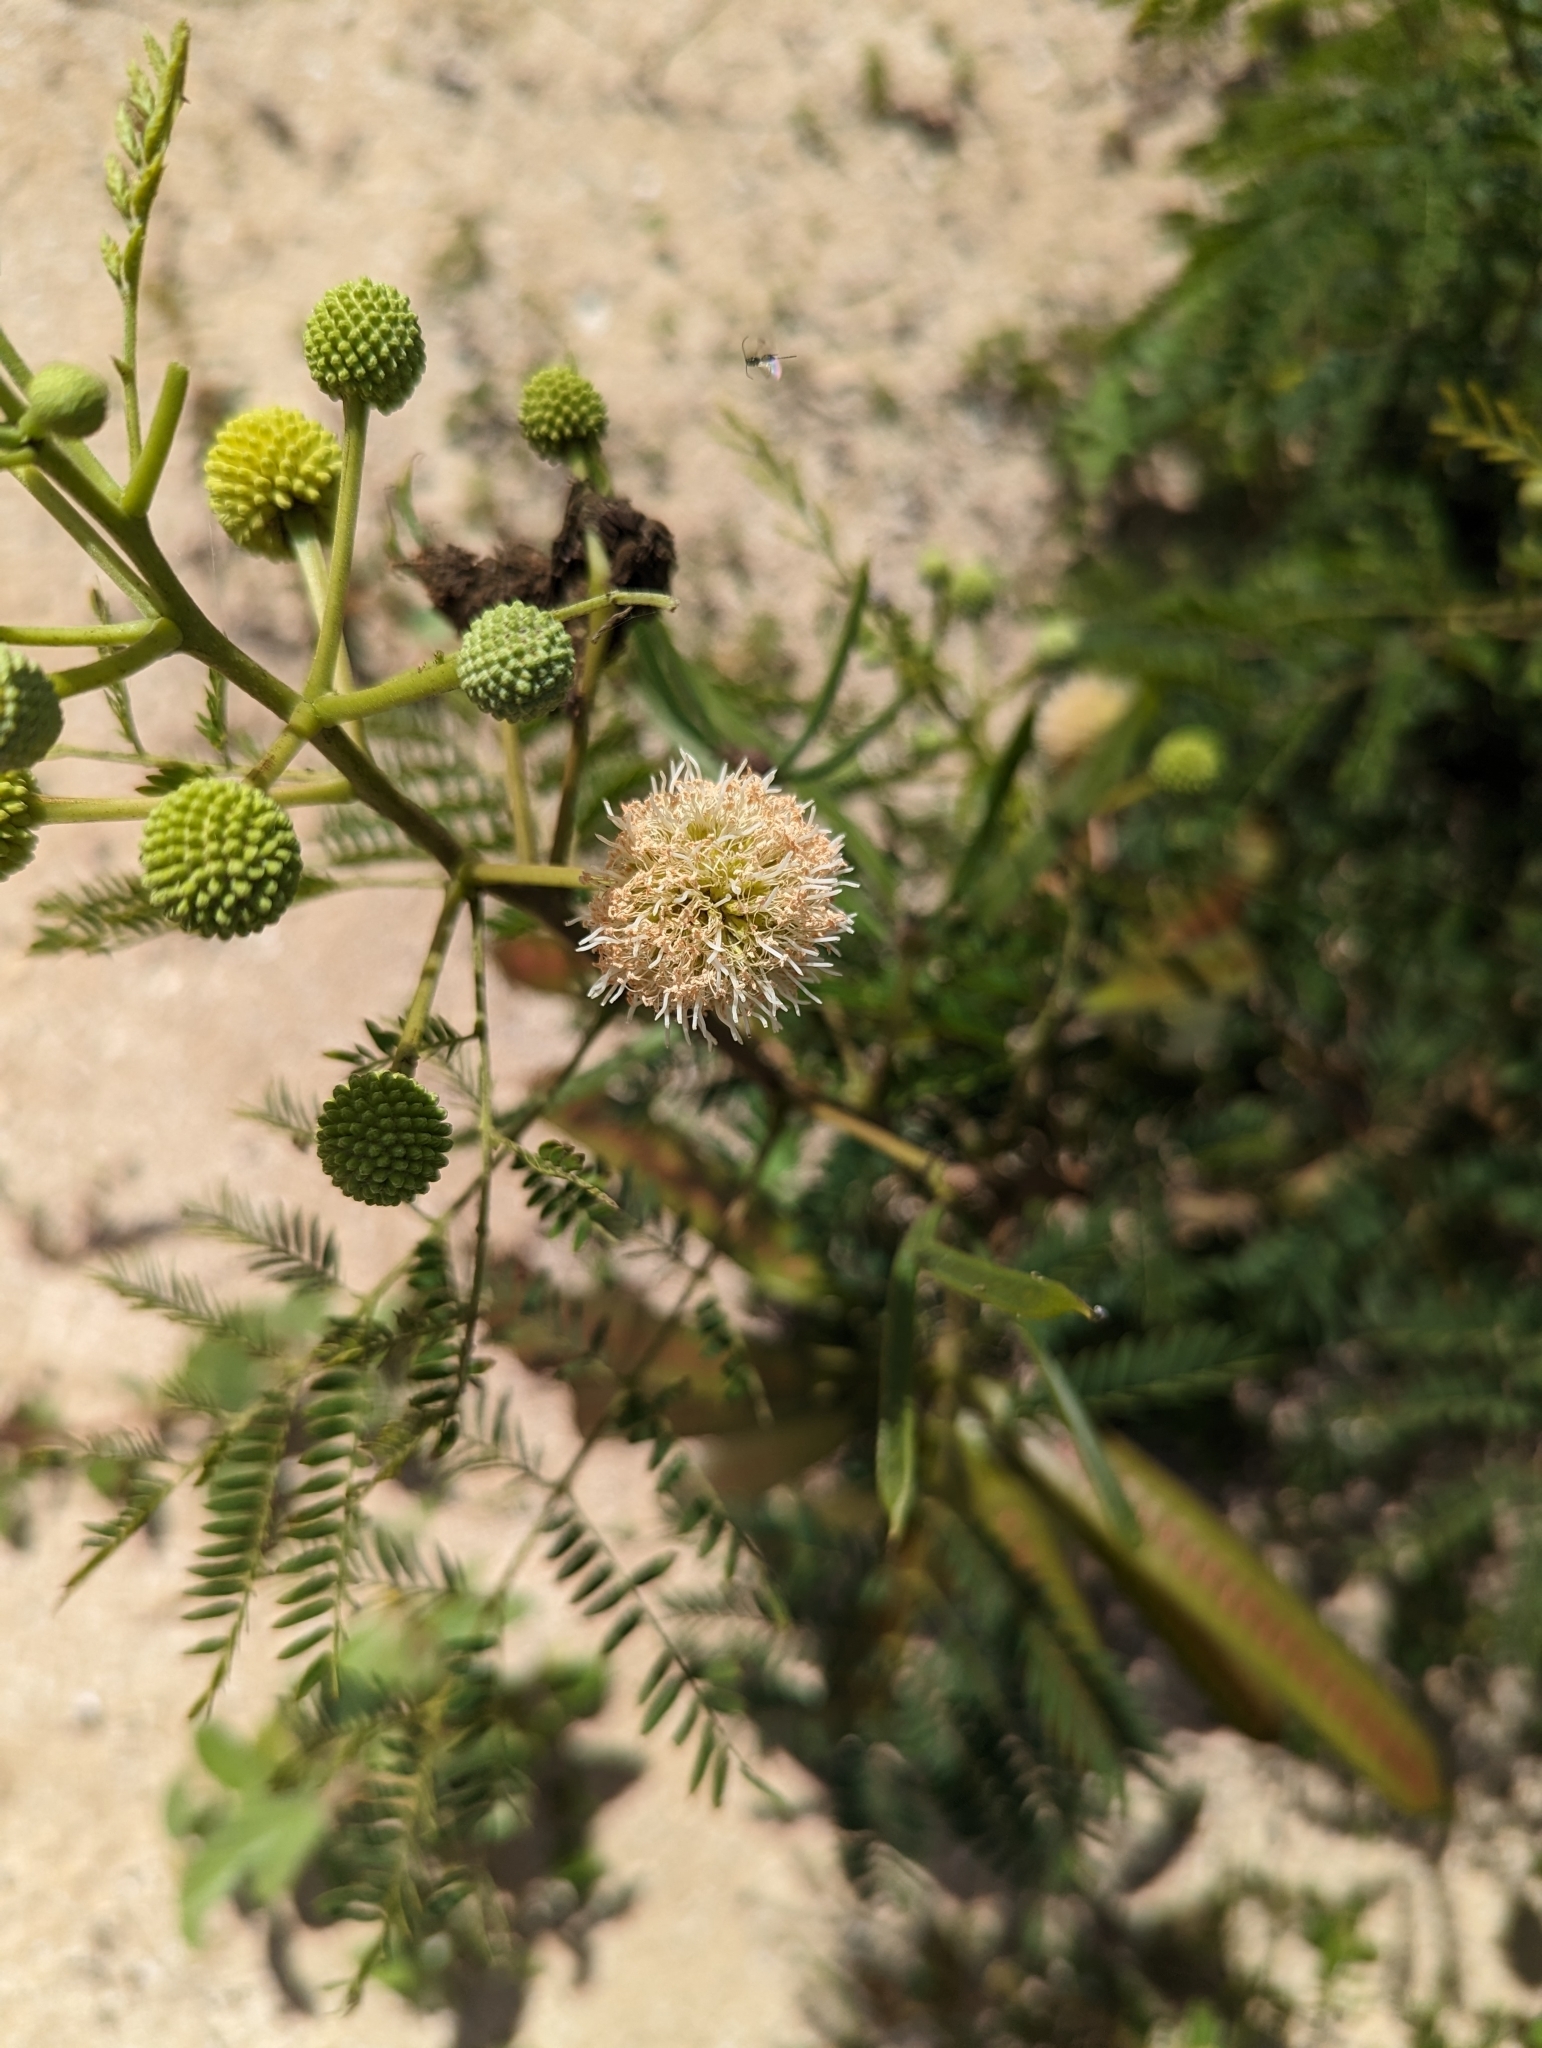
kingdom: Plantae
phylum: Tracheophyta
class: Magnoliopsida
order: Fabales
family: Fabaceae
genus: Leucaena
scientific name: Leucaena leucocephala
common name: White leadtree
